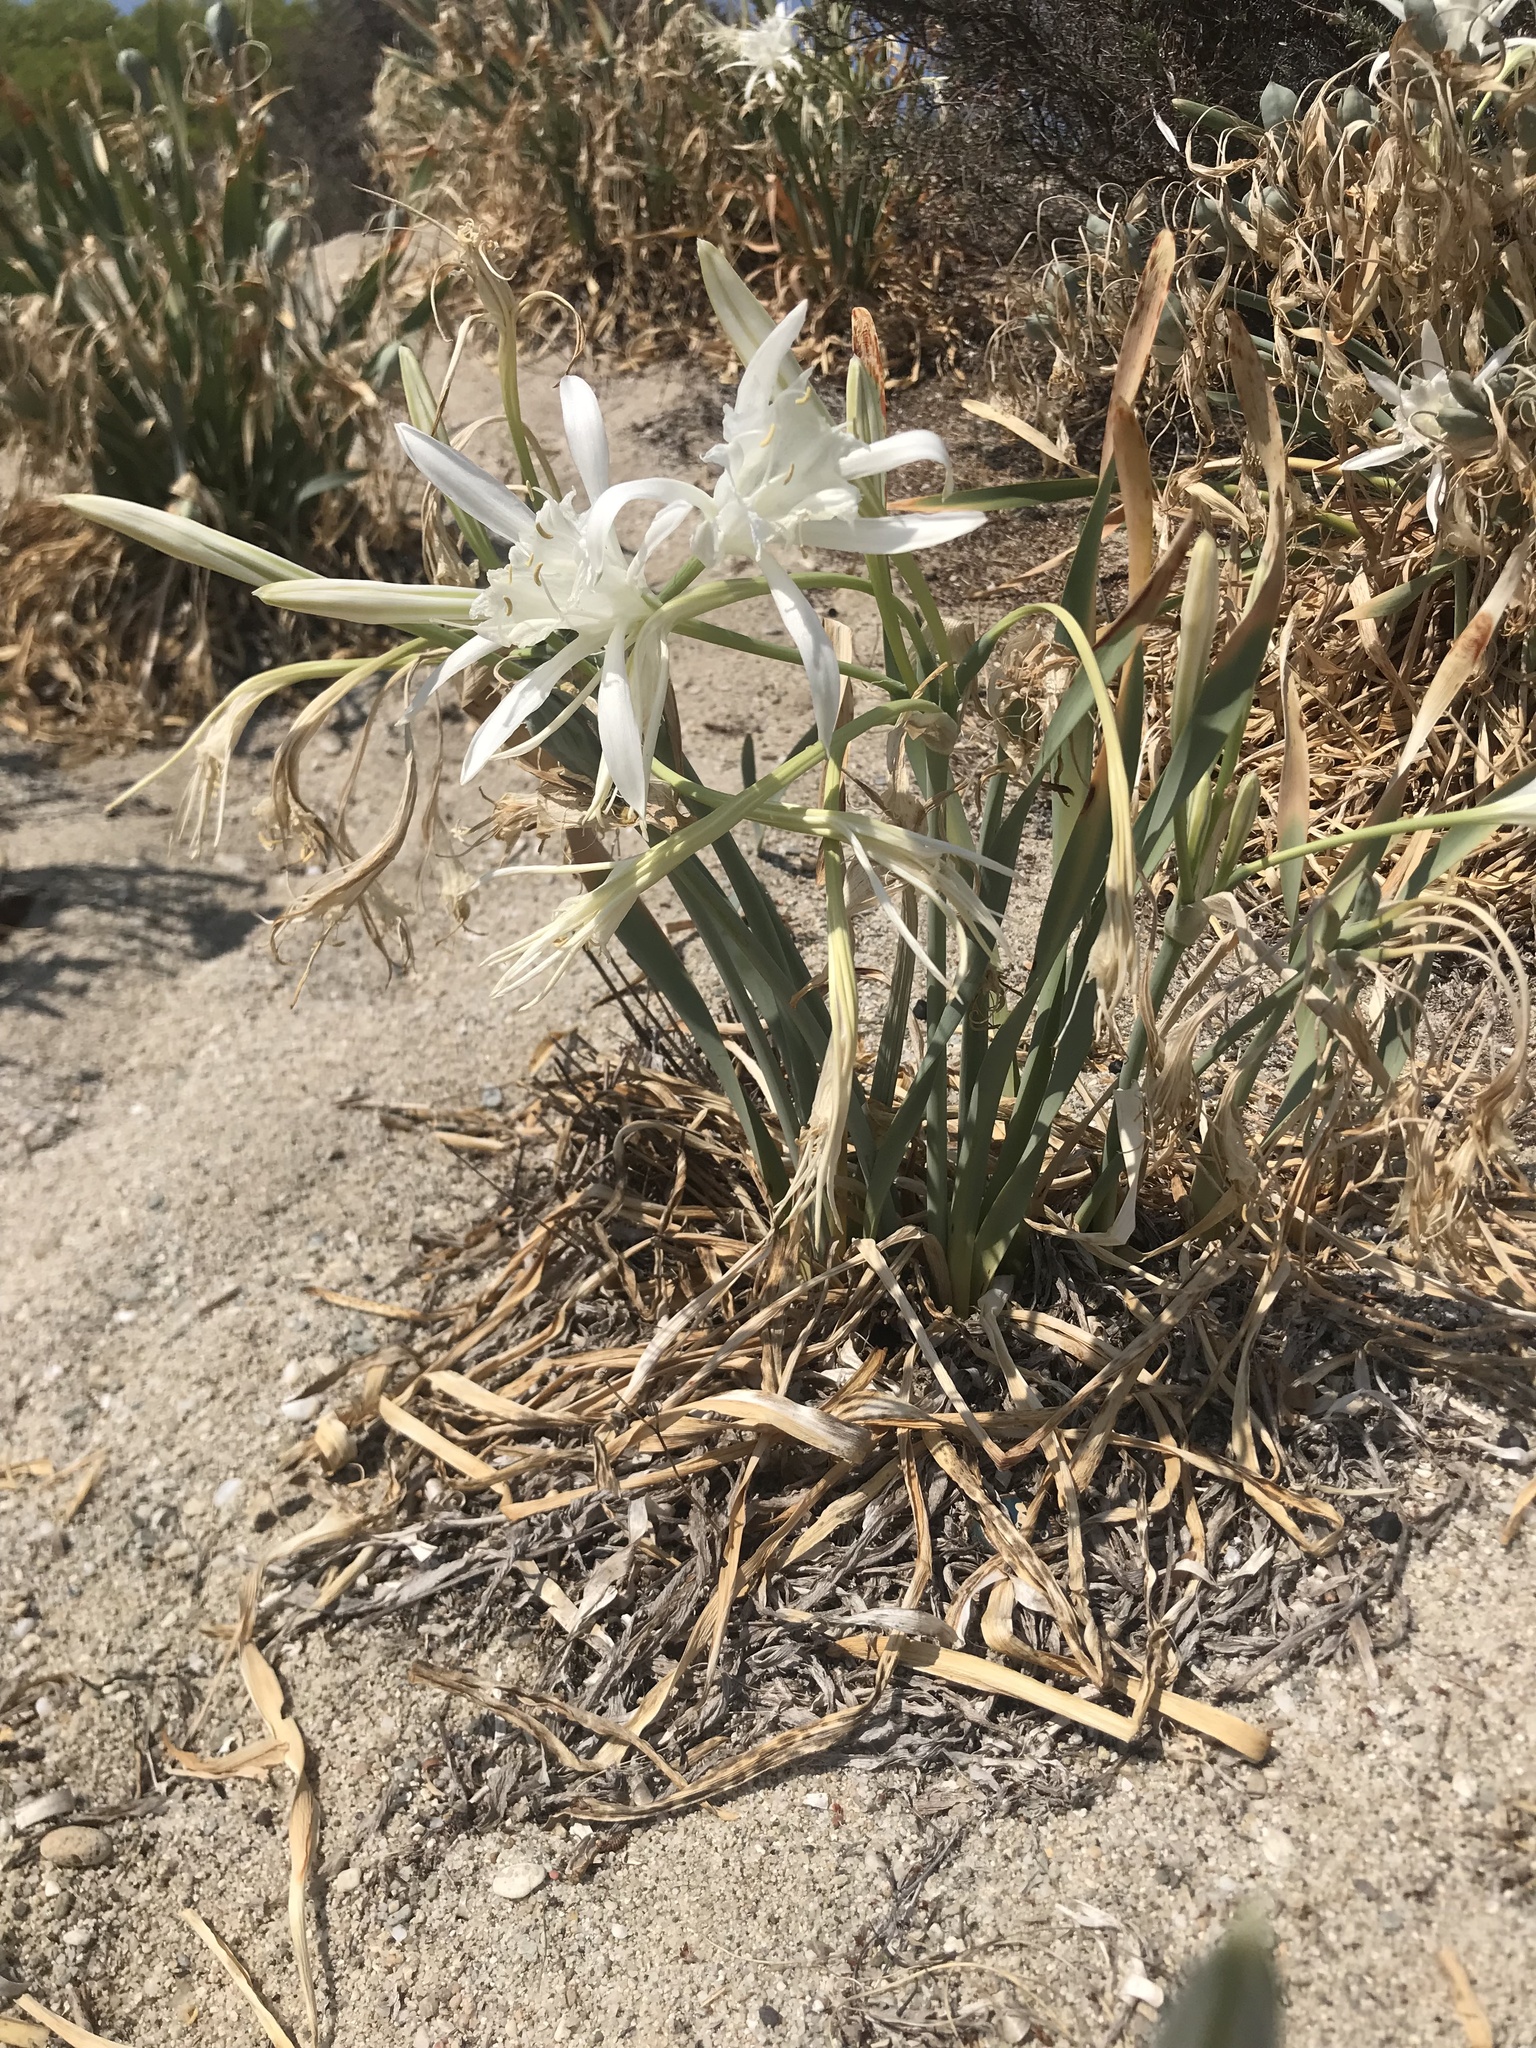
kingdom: Plantae
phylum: Tracheophyta
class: Liliopsida
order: Asparagales
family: Amaryllidaceae
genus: Pancratium
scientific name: Pancratium maritimum
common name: Sea-daffodil
